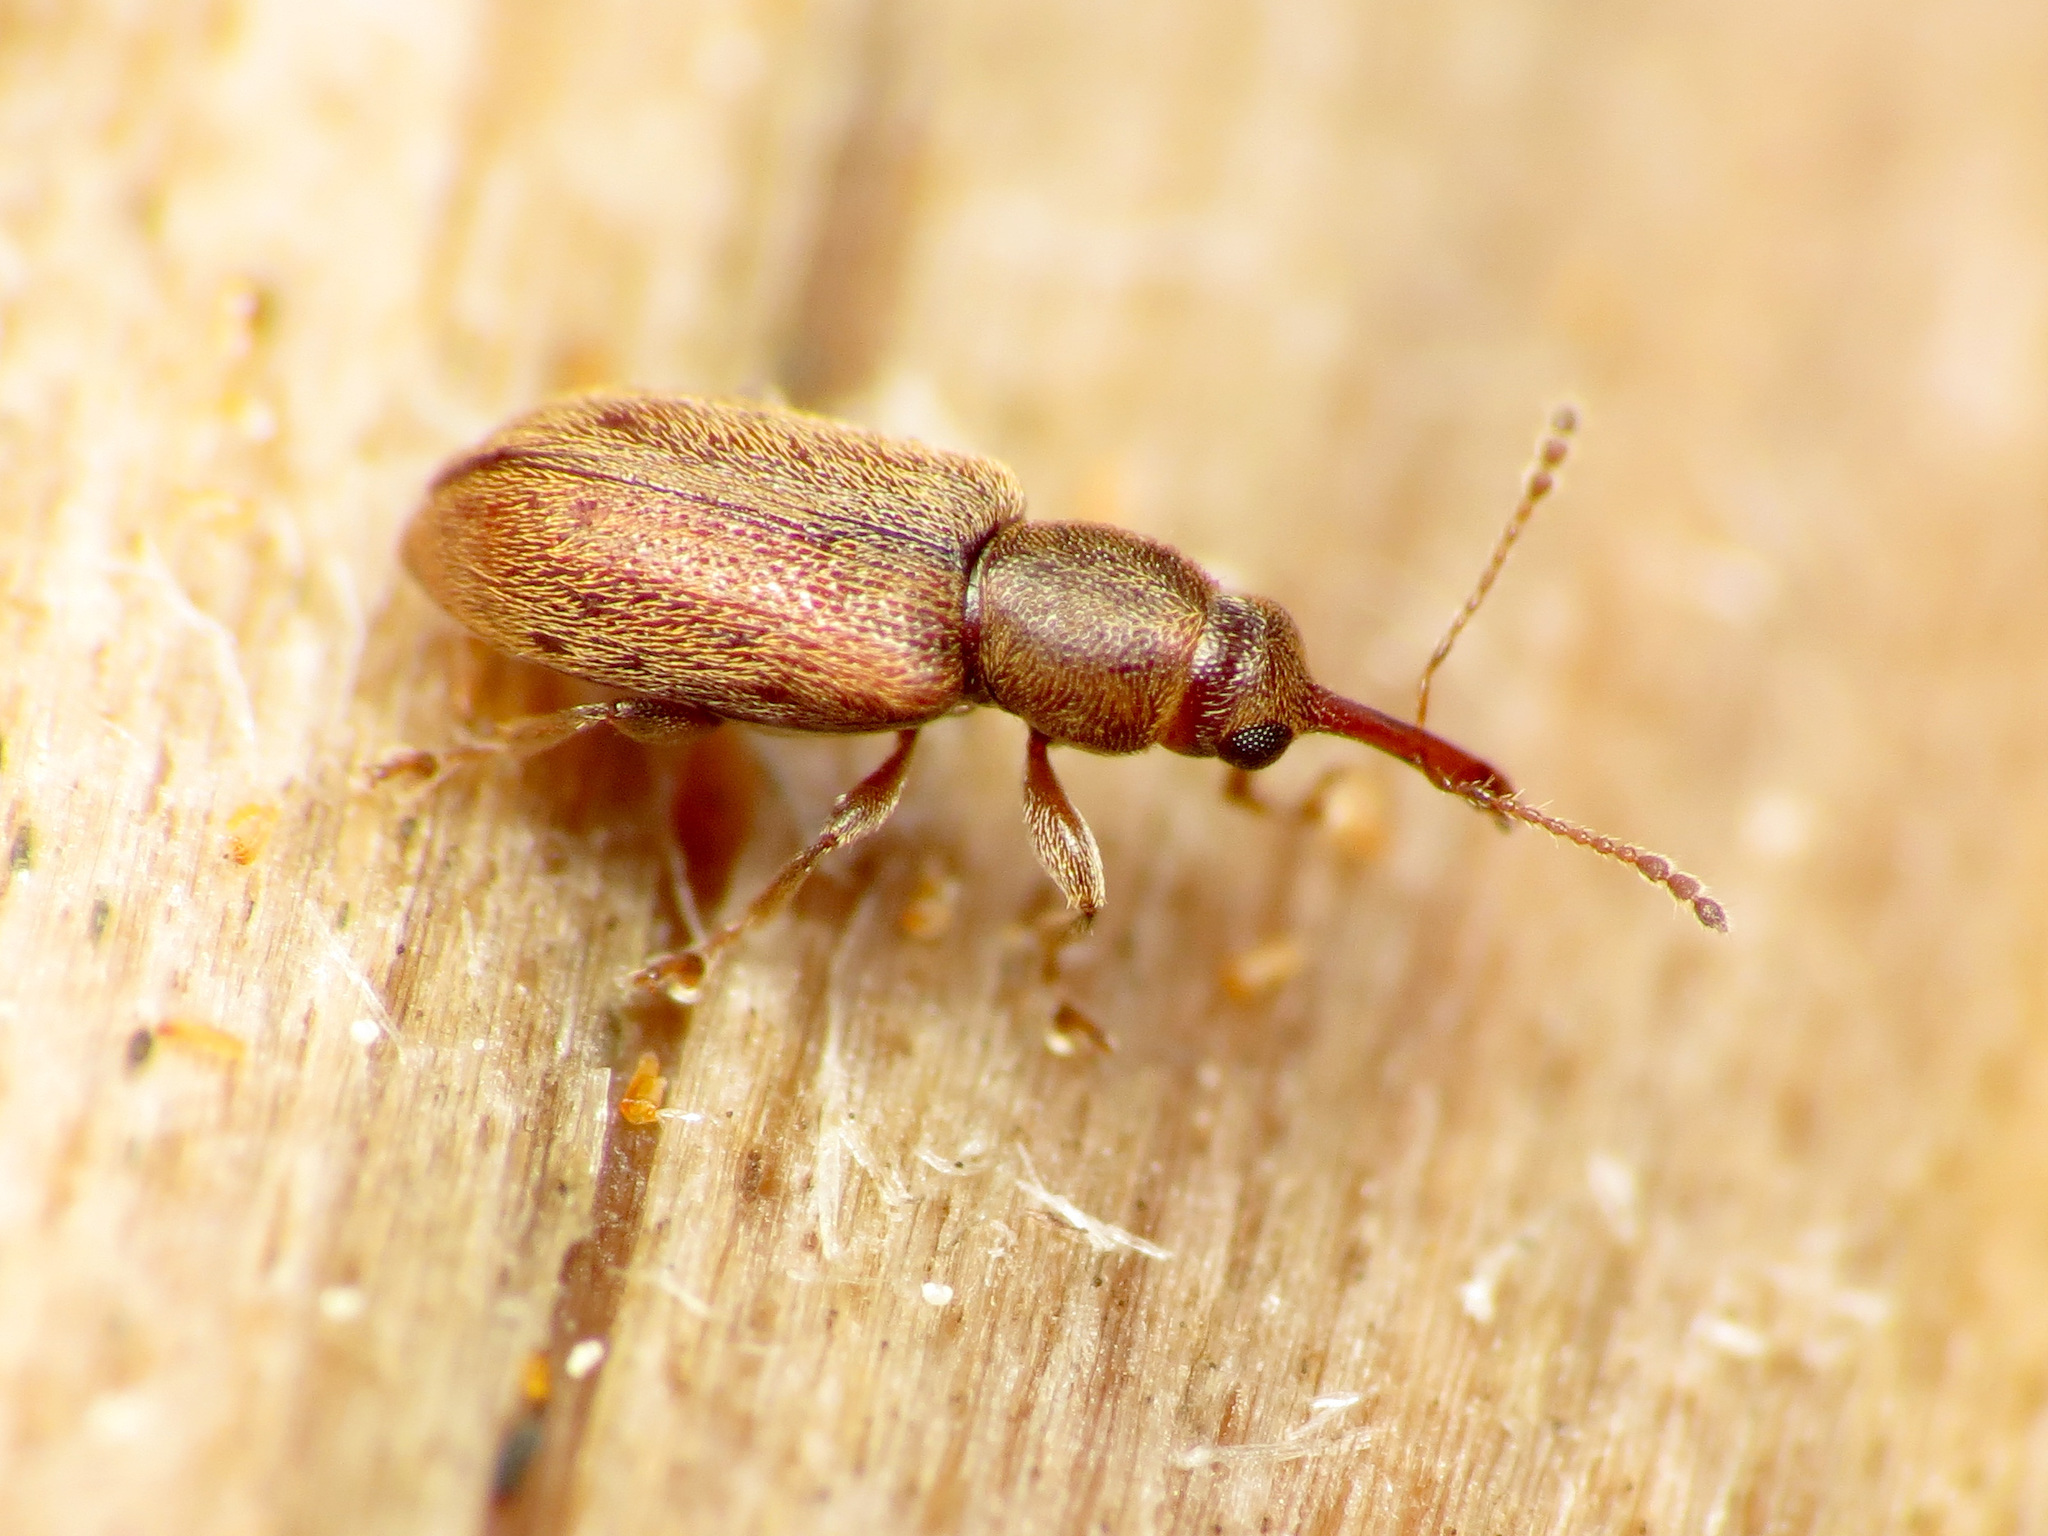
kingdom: Animalia
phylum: Arthropoda
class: Insecta
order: Coleoptera
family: Nemonychidae
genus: Rhinorhynchus
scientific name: Rhinorhynchus rufulus
